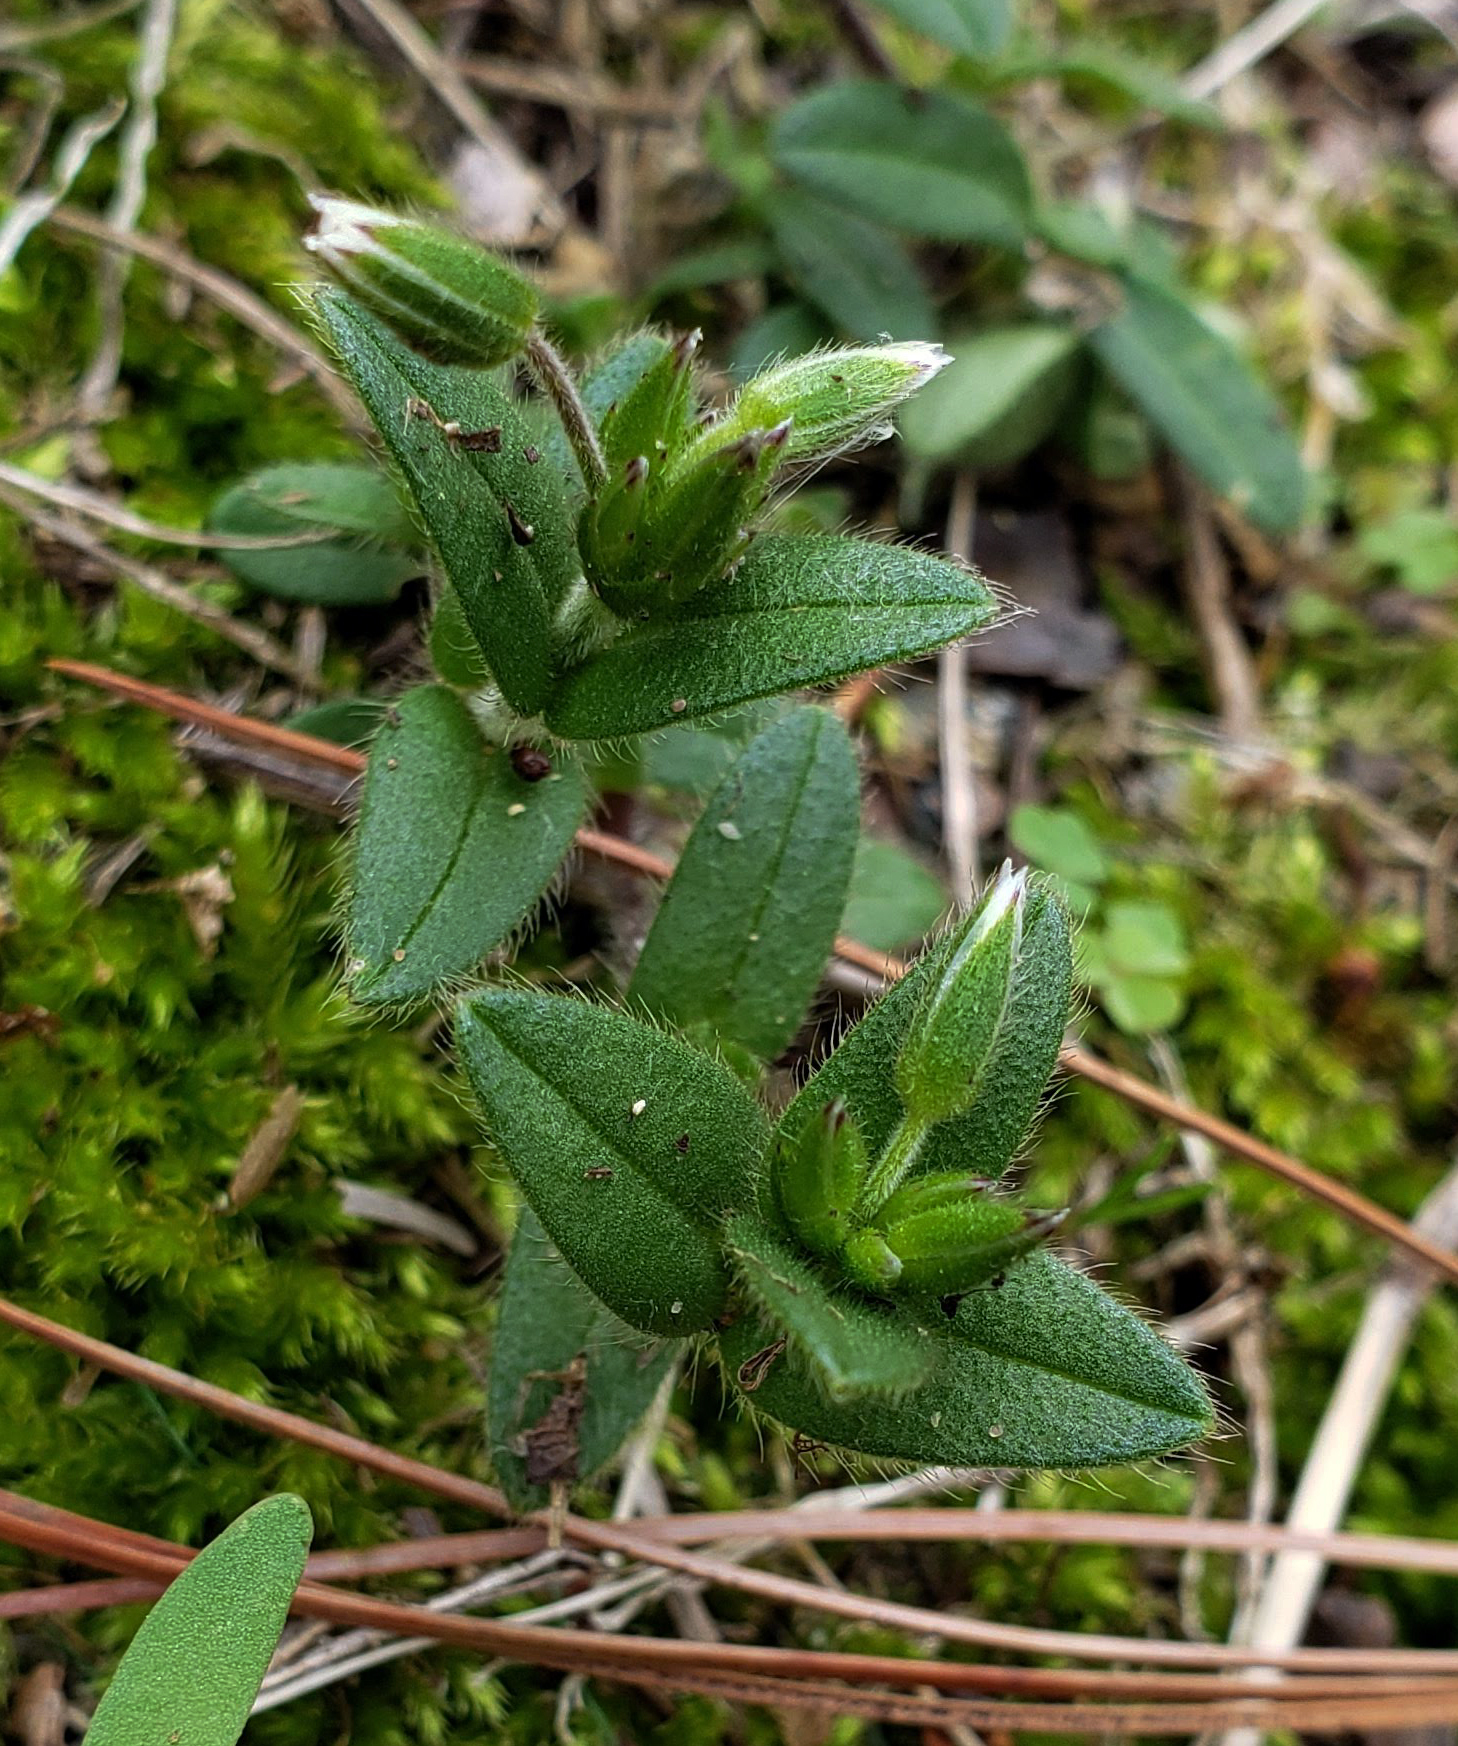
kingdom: Plantae
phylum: Tracheophyta
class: Magnoliopsida
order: Caryophyllales
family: Caryophyllaceae
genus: Cerastium
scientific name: Cerastium fontanum
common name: Common mouse-ear
